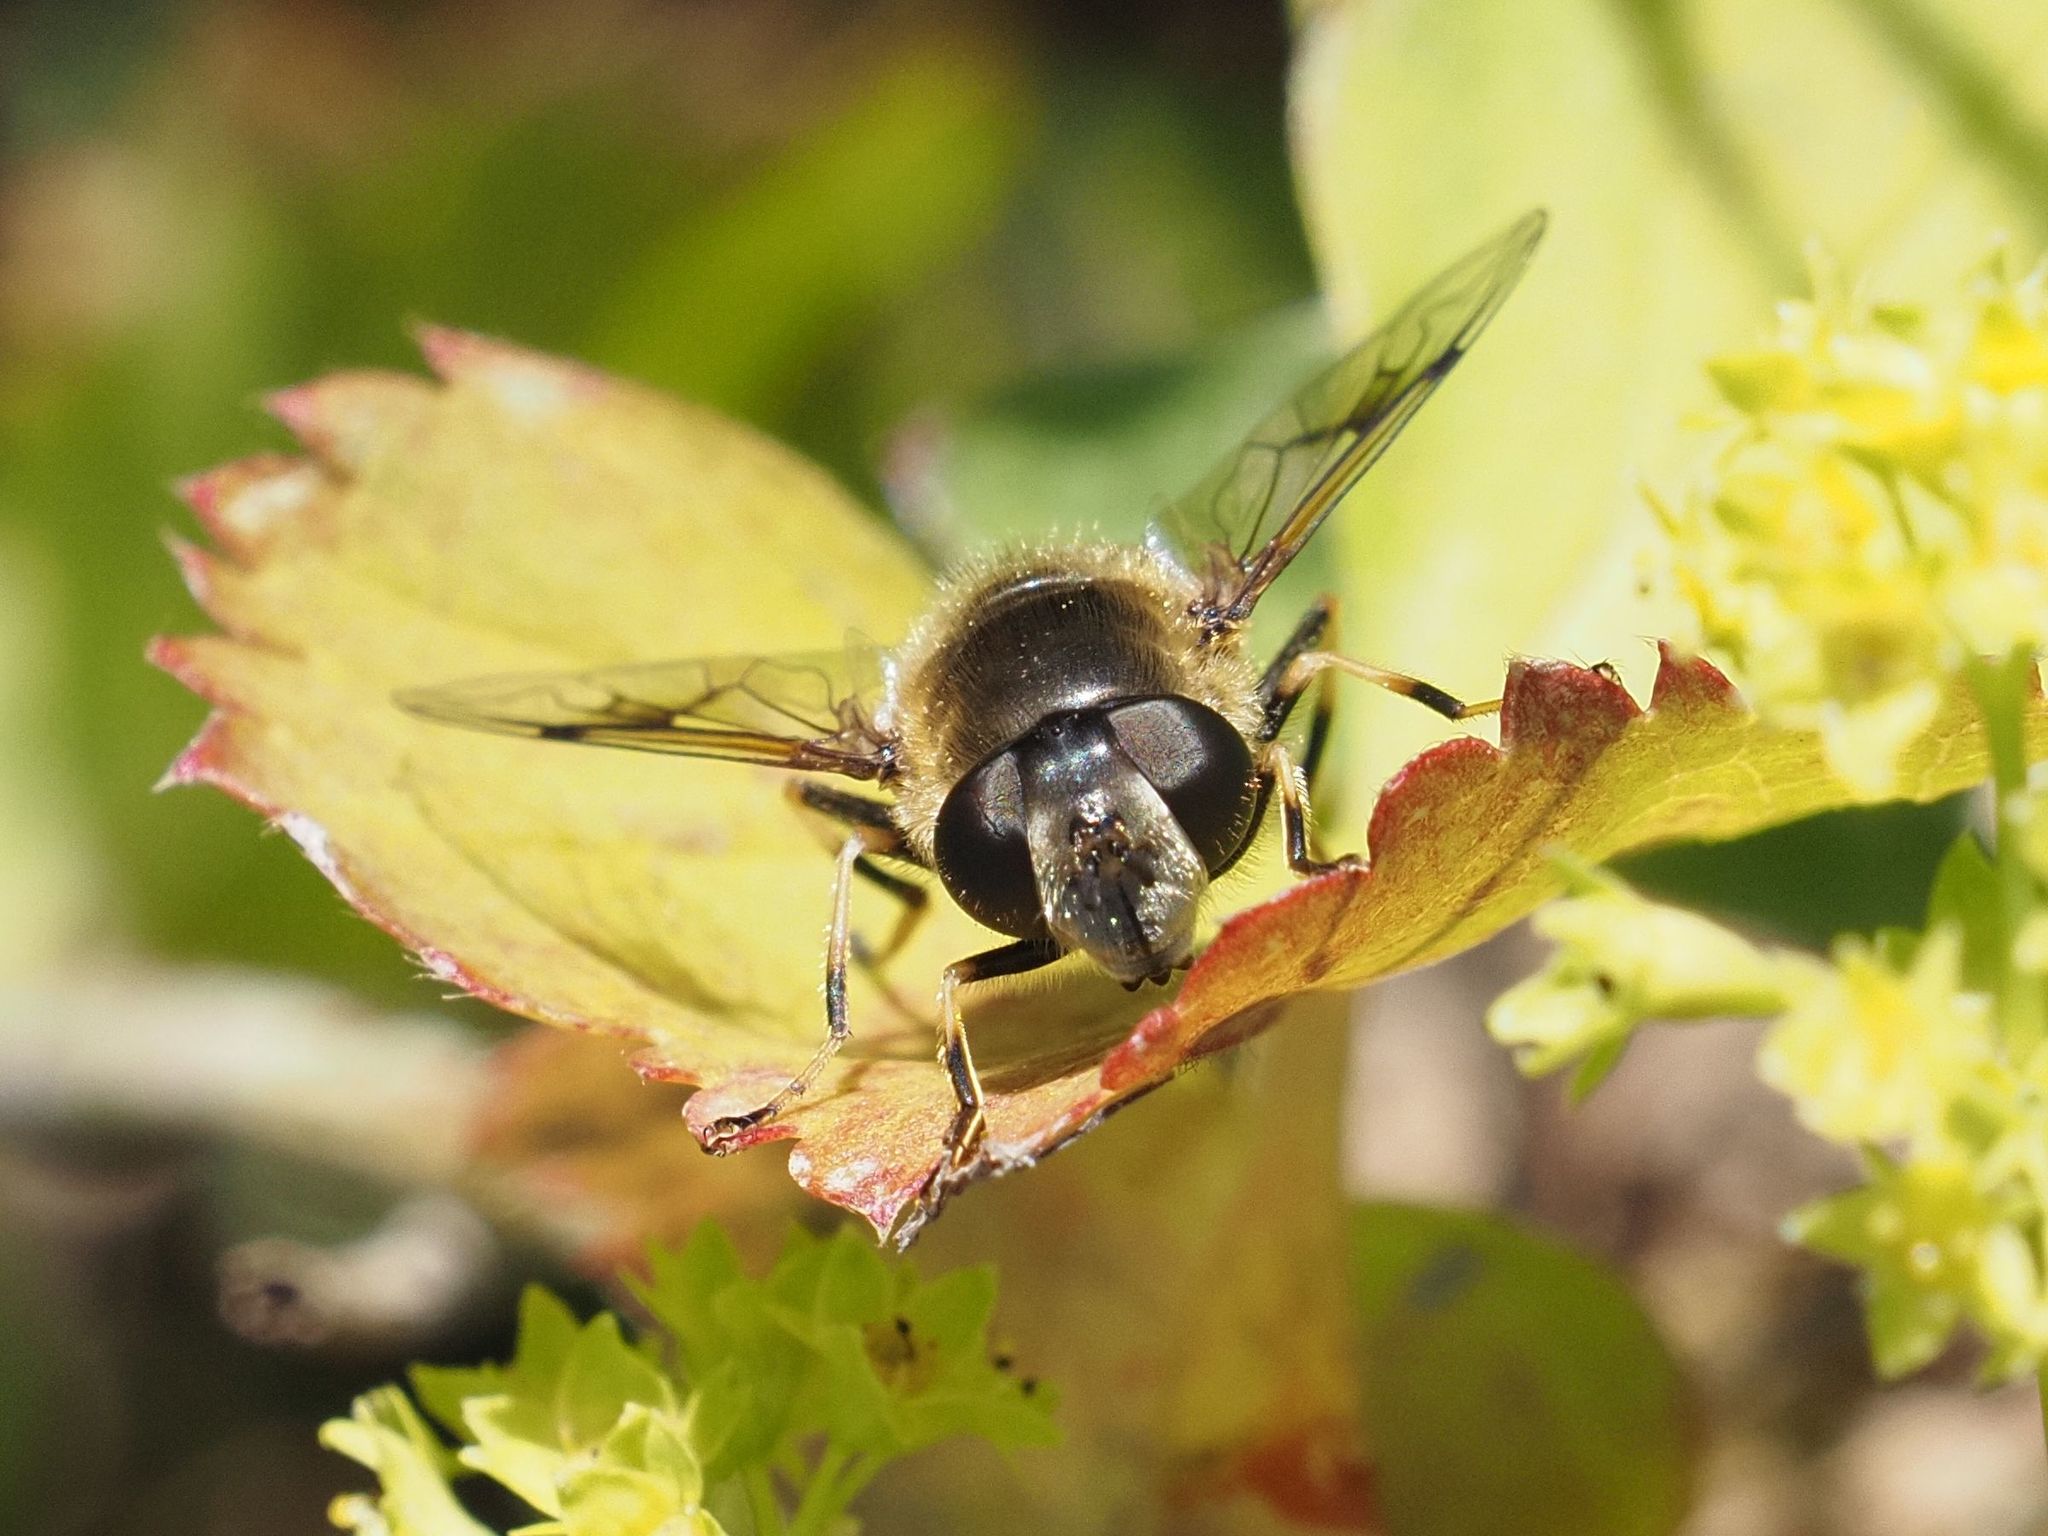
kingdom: Animalia
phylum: Arthropoda
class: Insecta
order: Diptera
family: Syrphidae
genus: Eristalis
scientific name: Eristalis rupium
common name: Hover fly
